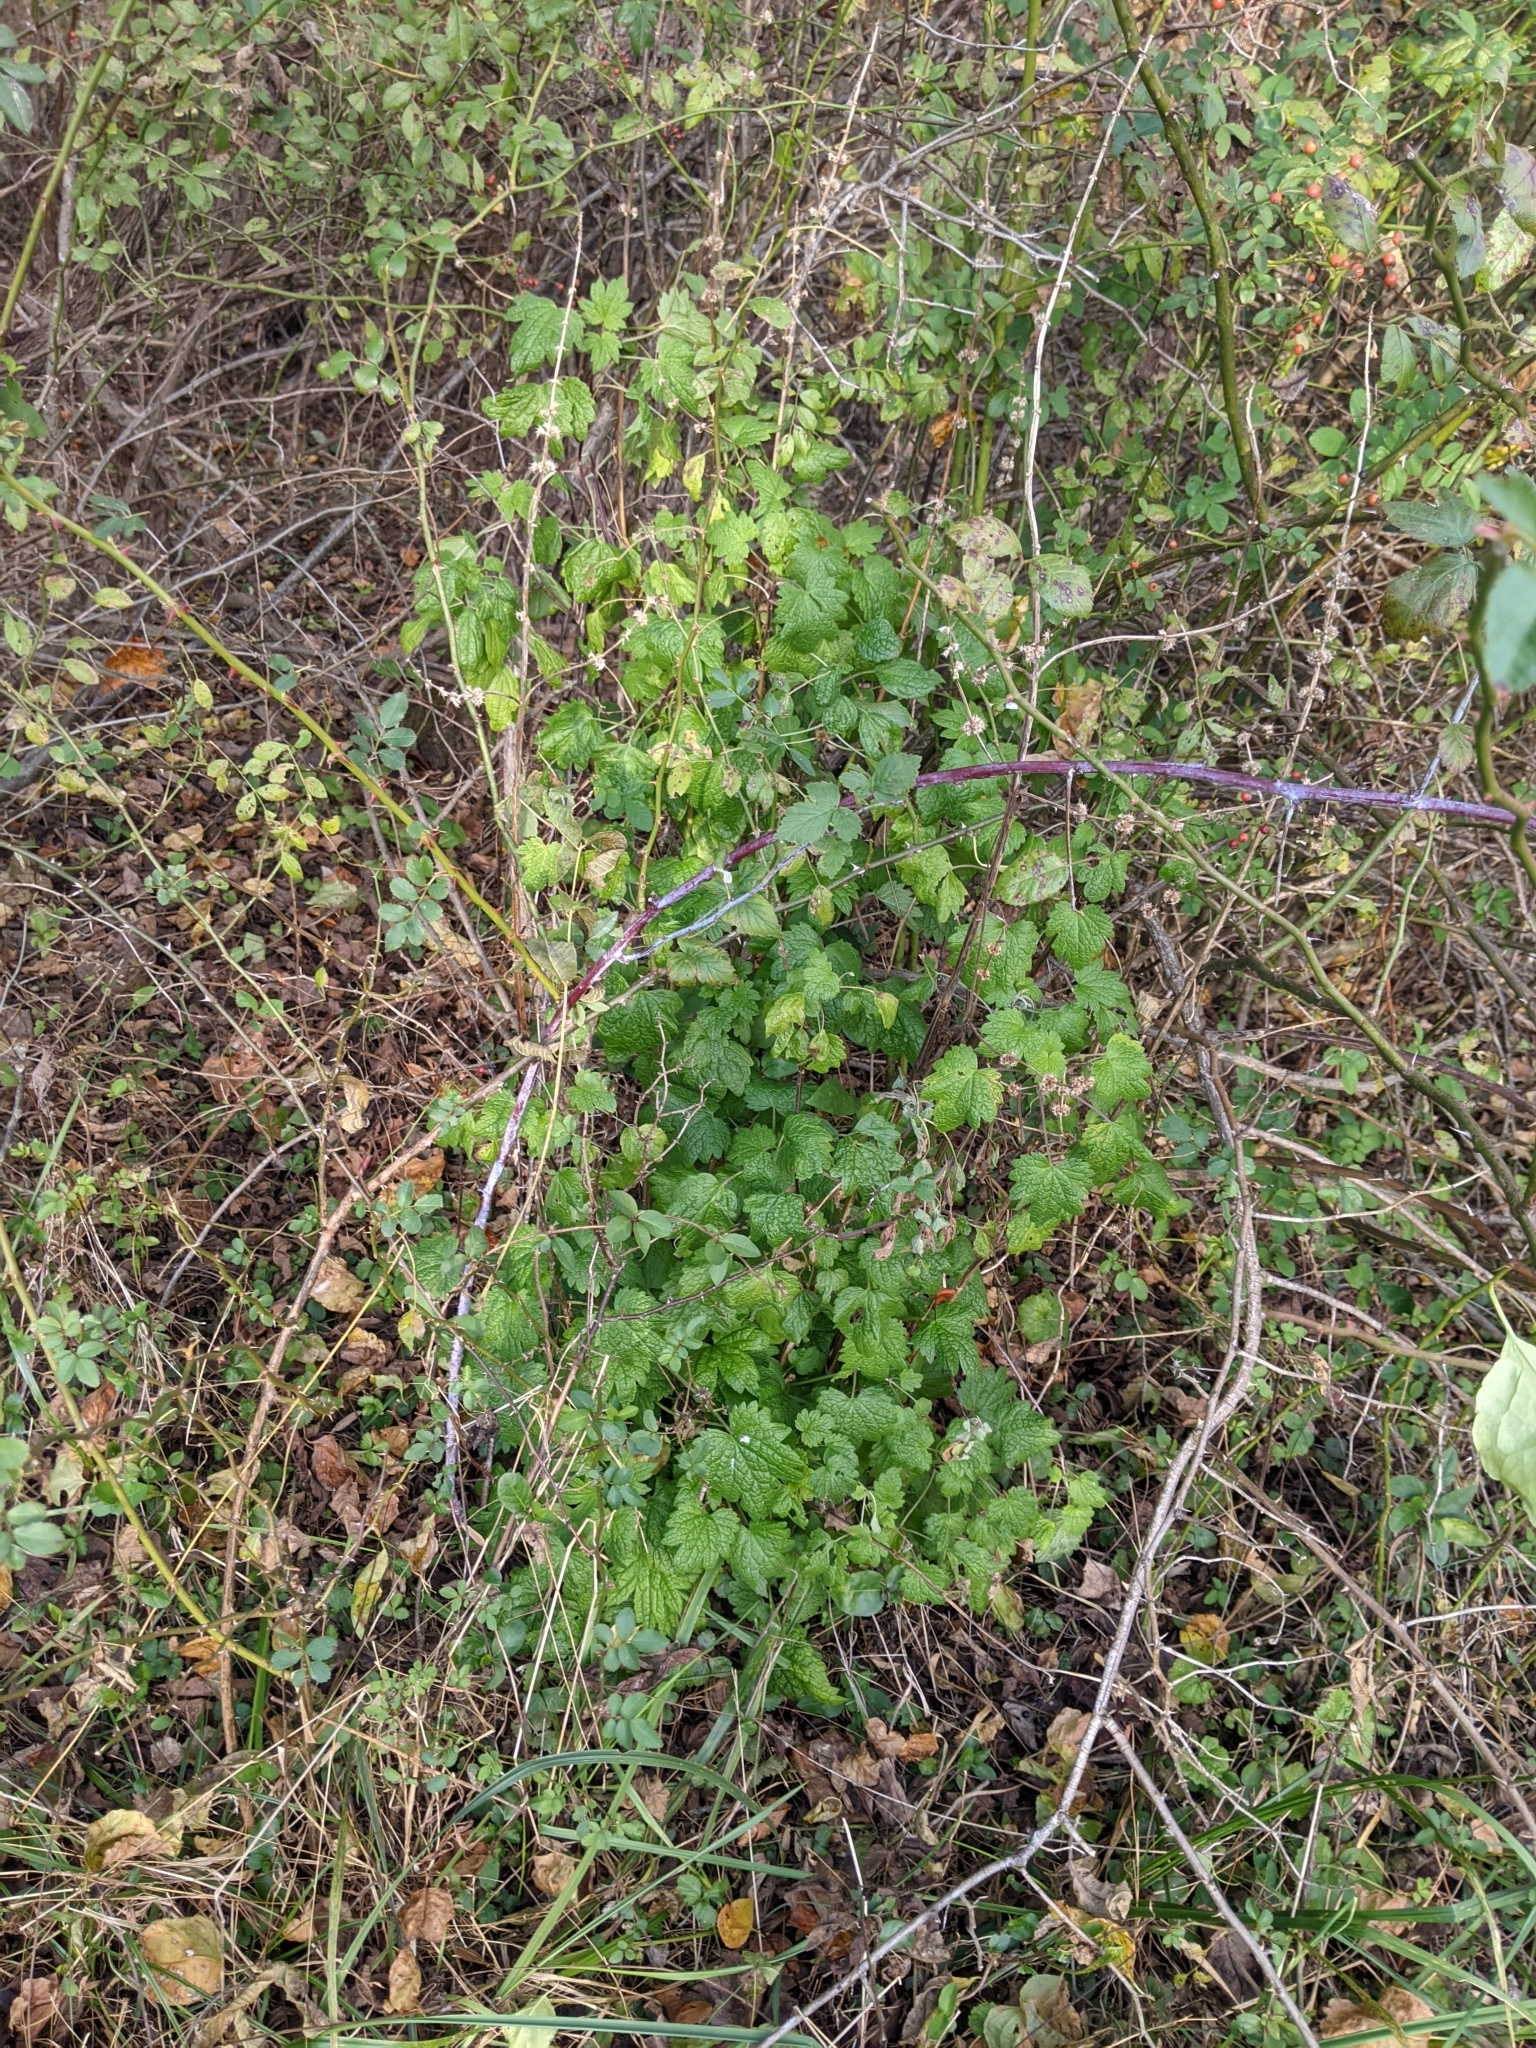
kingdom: Plantae
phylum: Tracheophyta
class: Magnoliopsida
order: Lamiales
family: Lamiaceae
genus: Leonurus
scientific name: Leonurus cardiaca
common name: Motherwort
